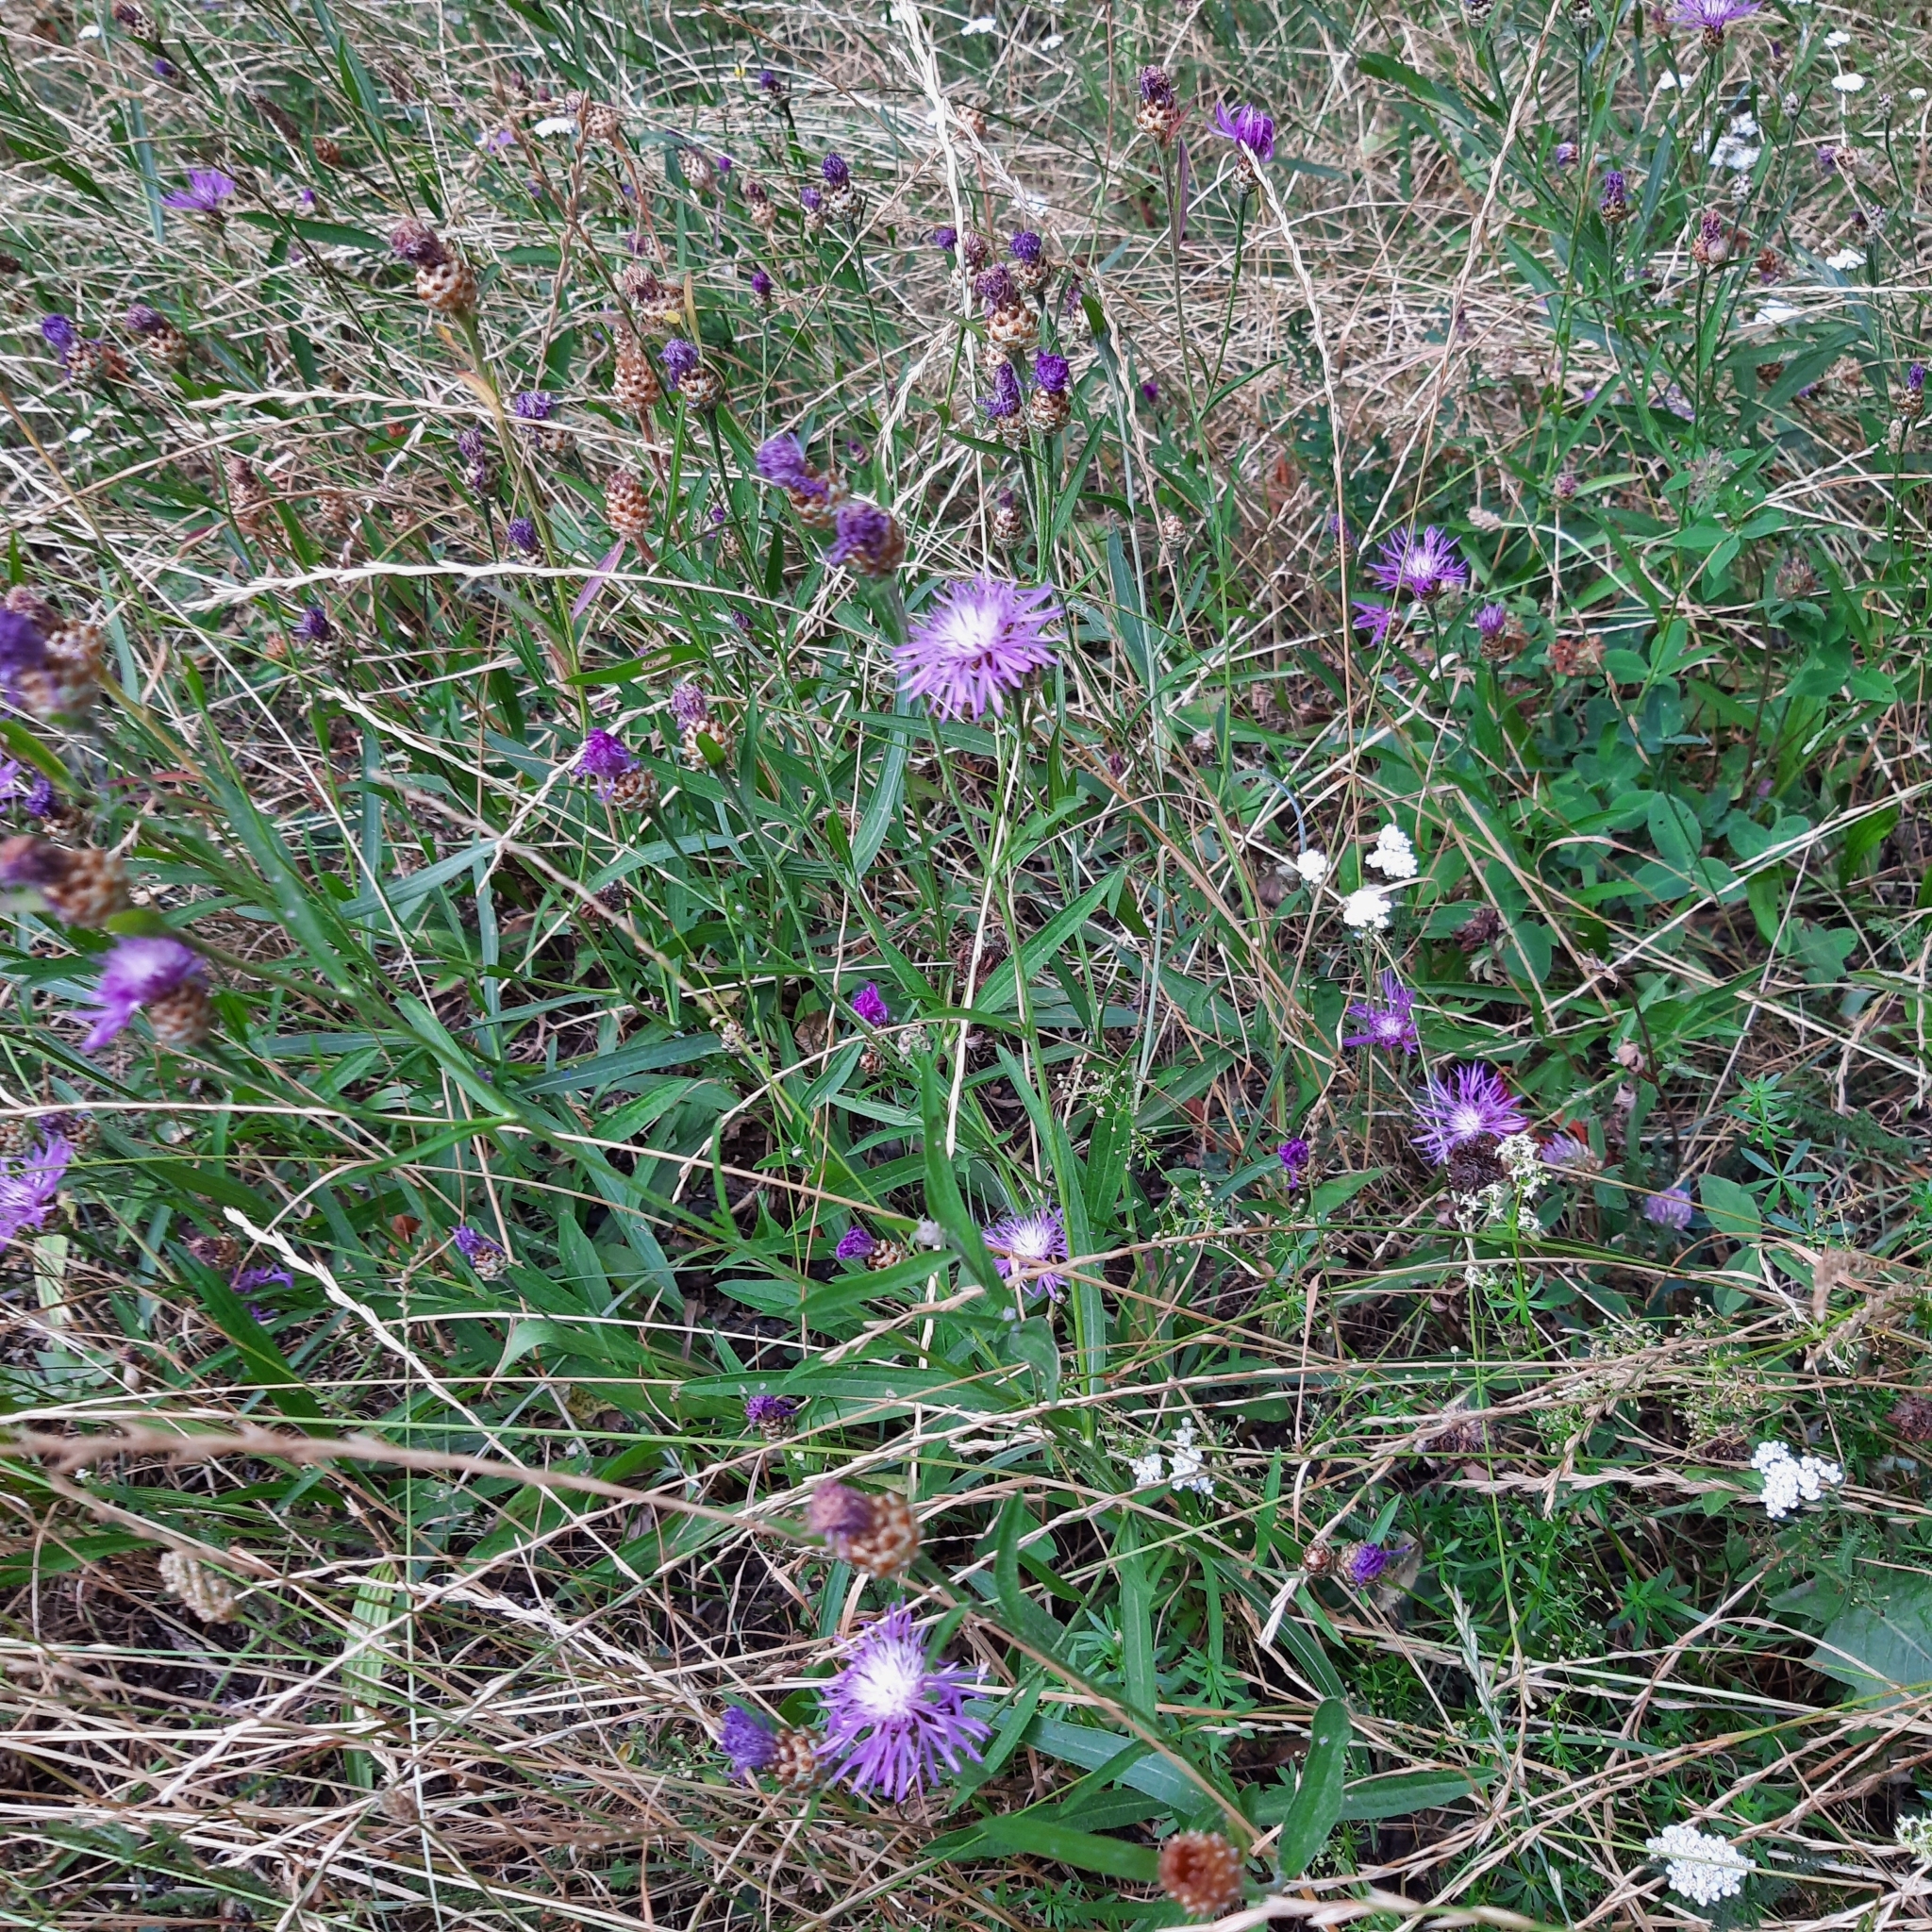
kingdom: Plantae
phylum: Tracheophyta
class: Magnoliopsida
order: Asterales
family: Asteraceae
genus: Centaurea
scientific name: Centaurea jacea
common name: Brown knapweed
